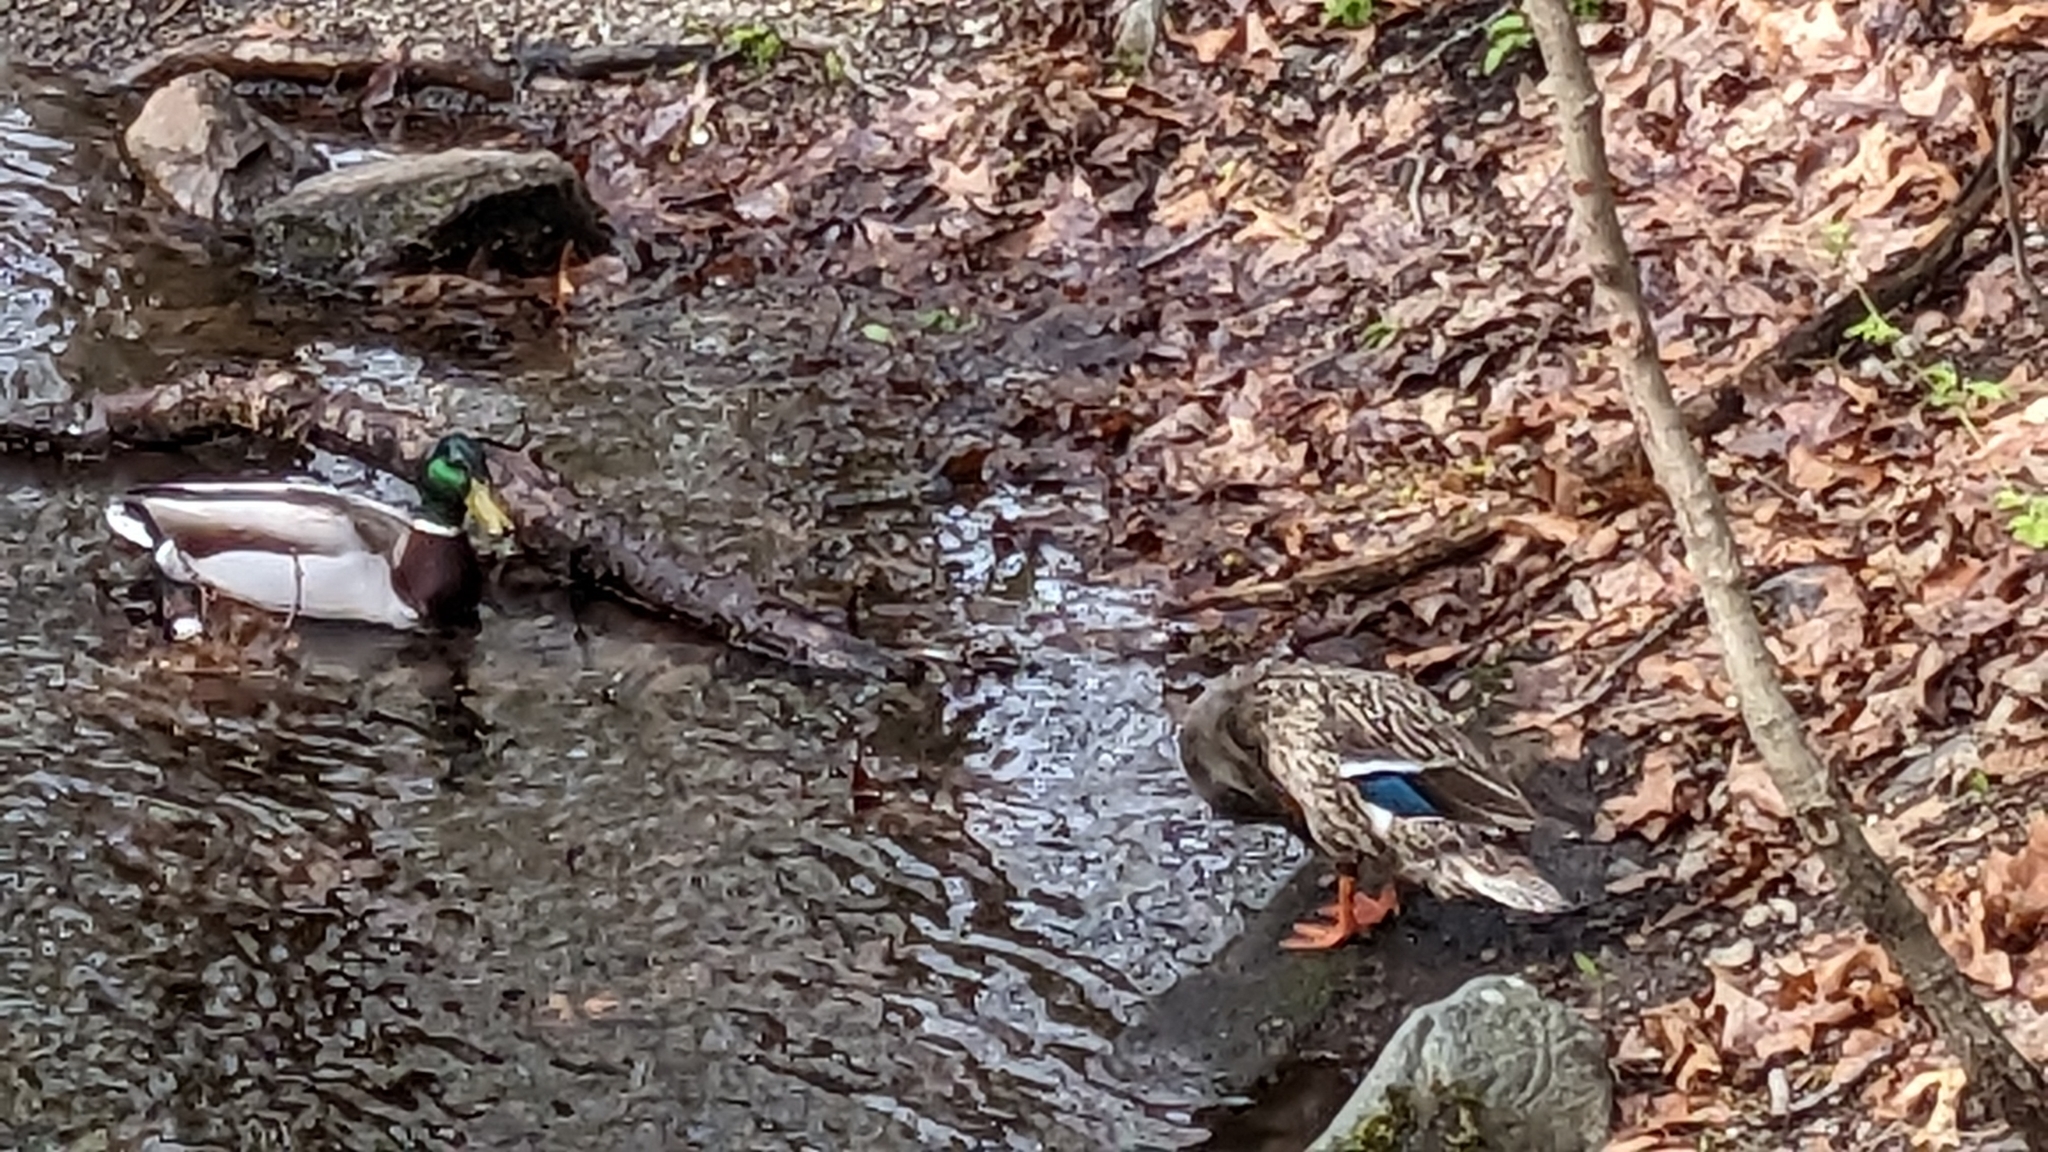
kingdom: Animalia
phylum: Chordata
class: Aves
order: Anseriformes
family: Anatidae
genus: Anas
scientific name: Anas platyrhynchos
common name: Mallard
